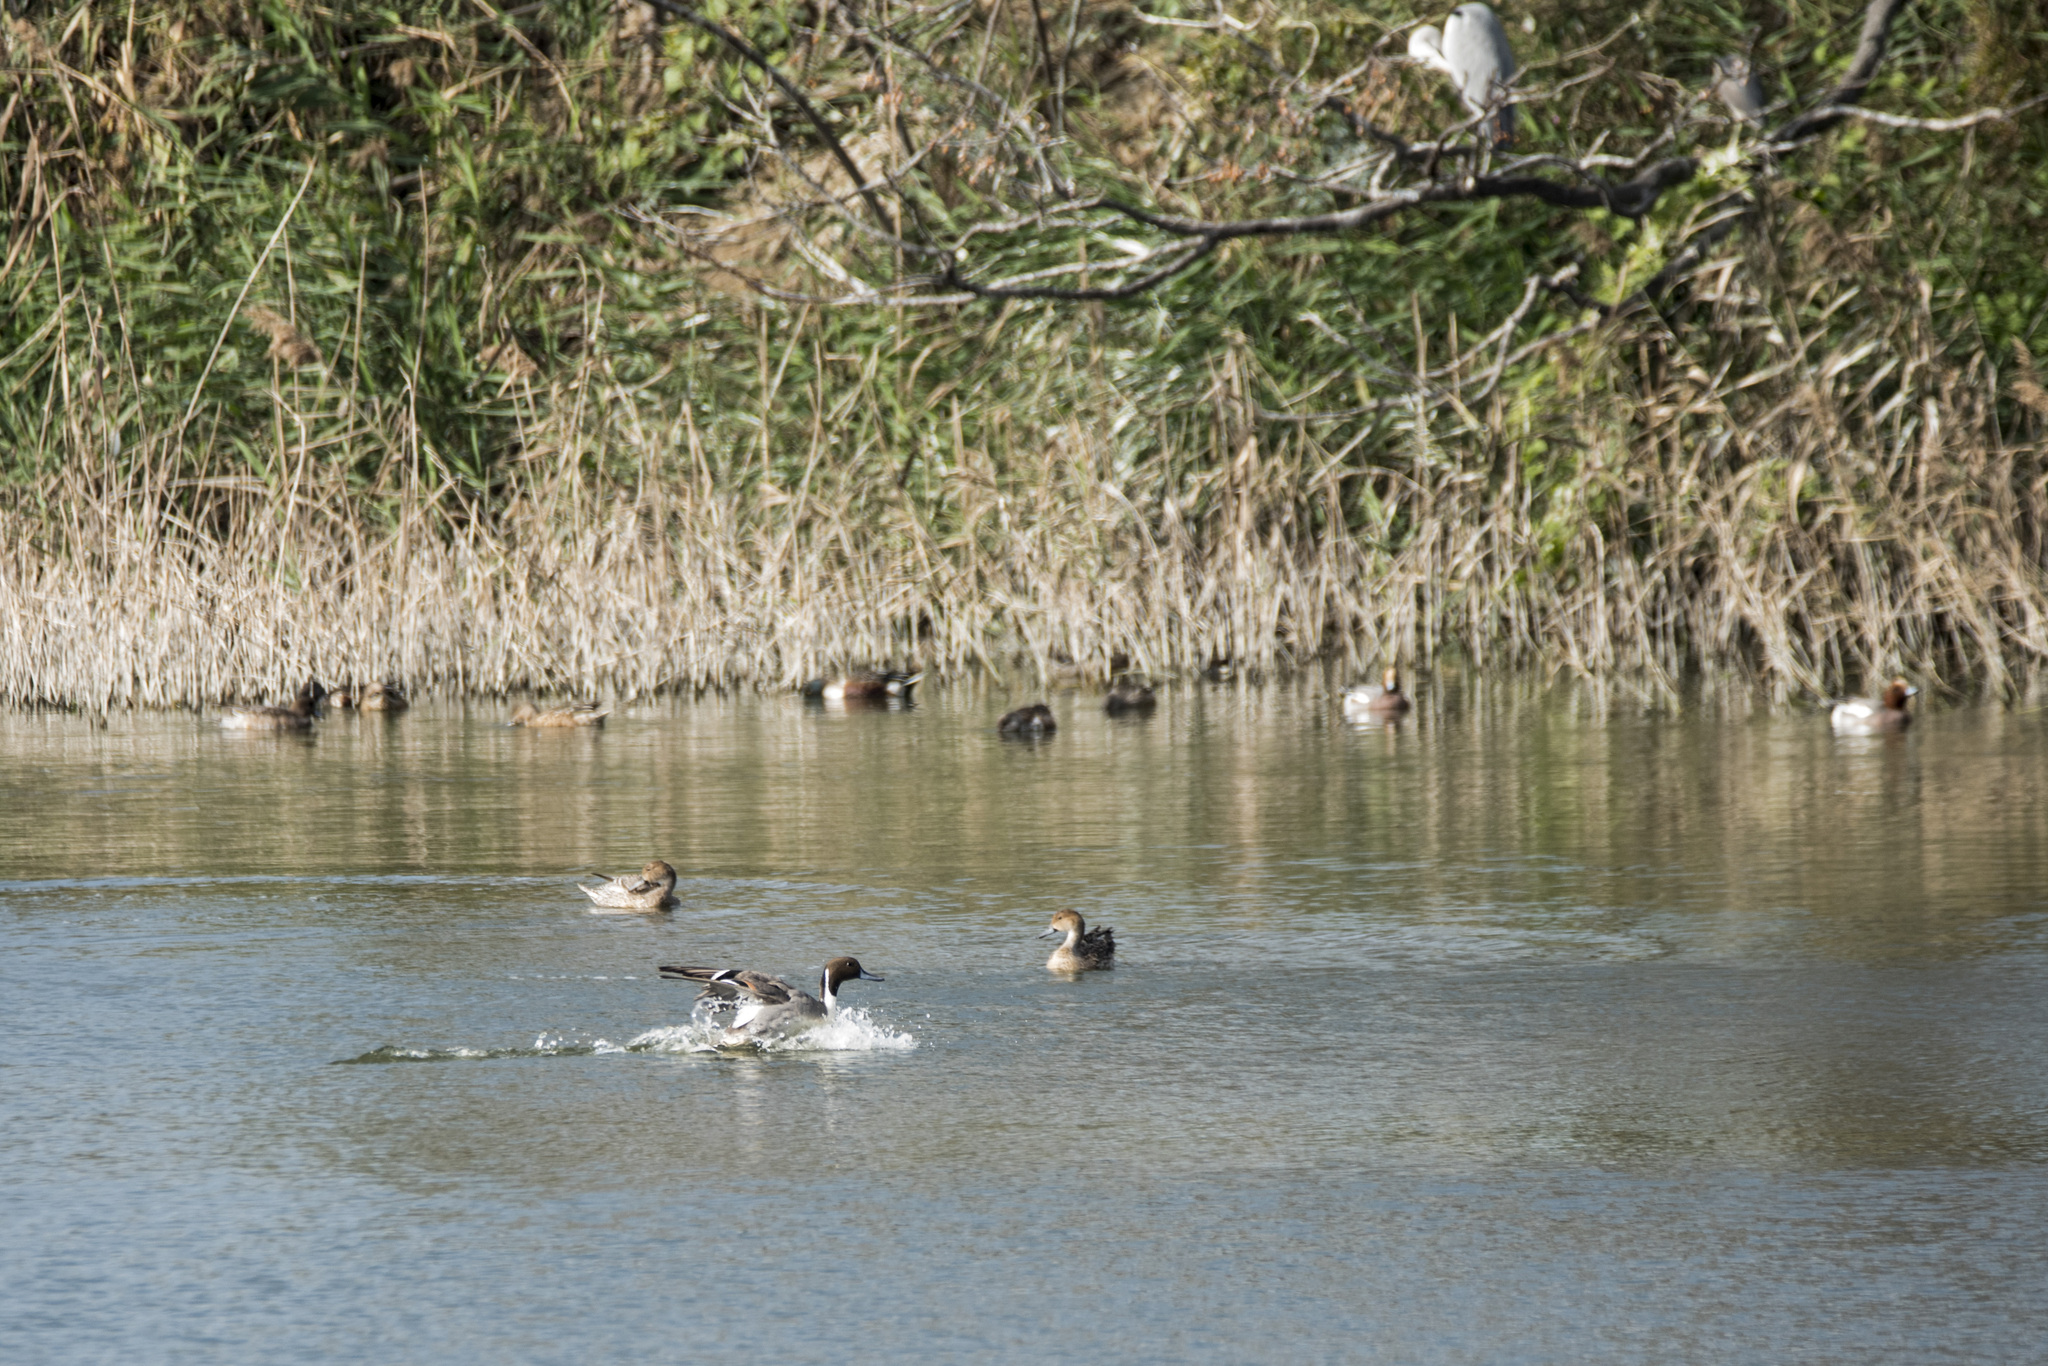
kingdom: Animalia
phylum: Chordata
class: Aves
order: Anseriformes
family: Anatidae
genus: Anas
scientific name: Anas acuta
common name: Northern pintail
